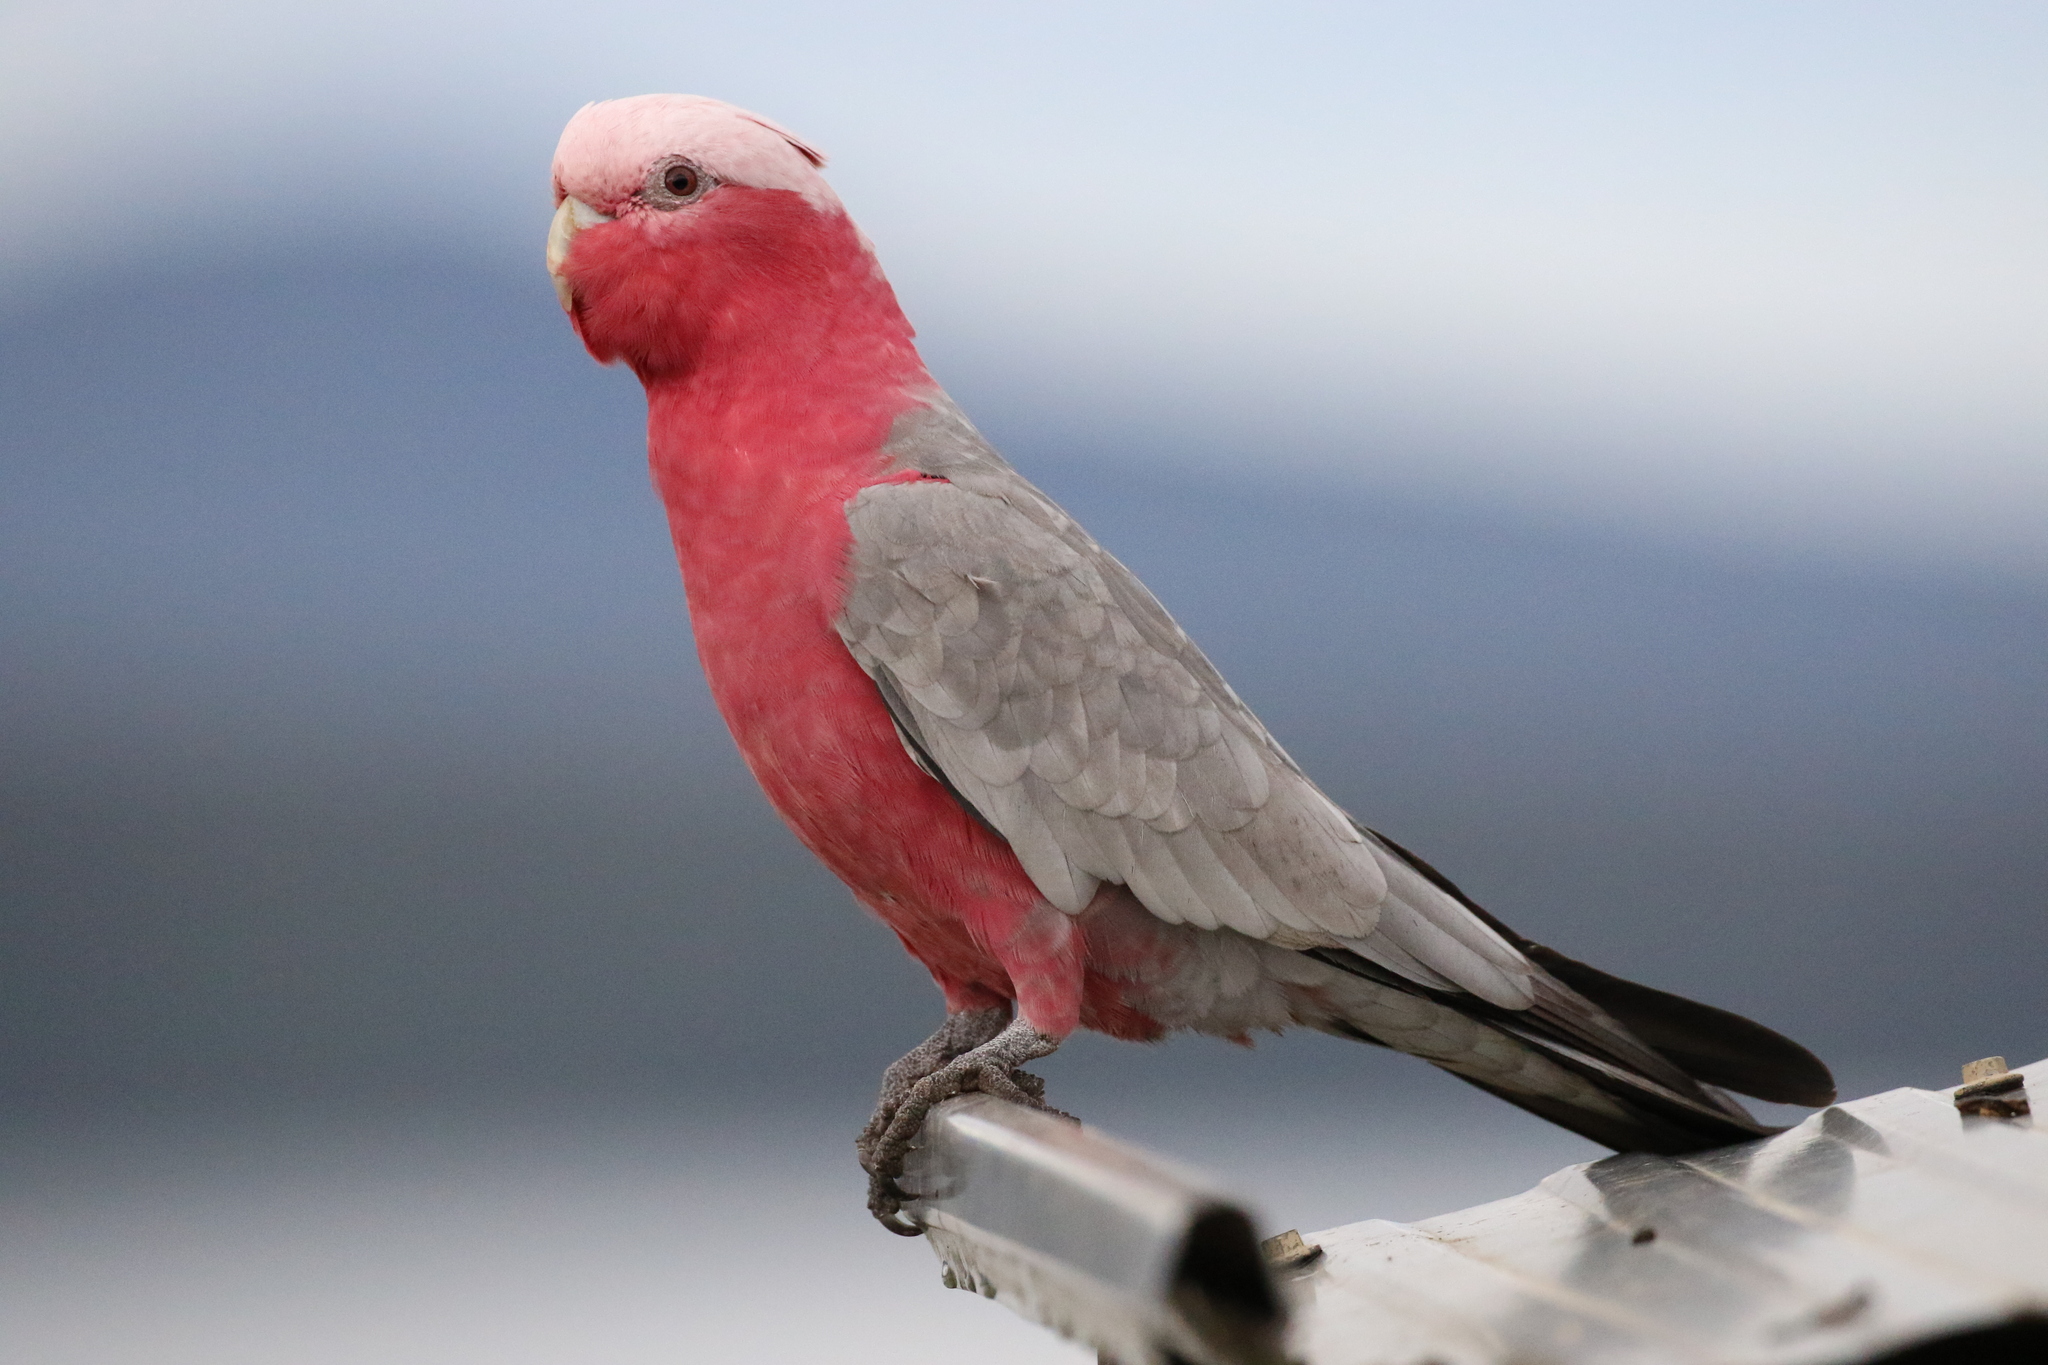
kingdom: Animalia
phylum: Chordata
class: Aves
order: Psittaciformes
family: Psittacidae
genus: Eolophus
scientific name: Eolophus roseicapilla
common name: Galah
